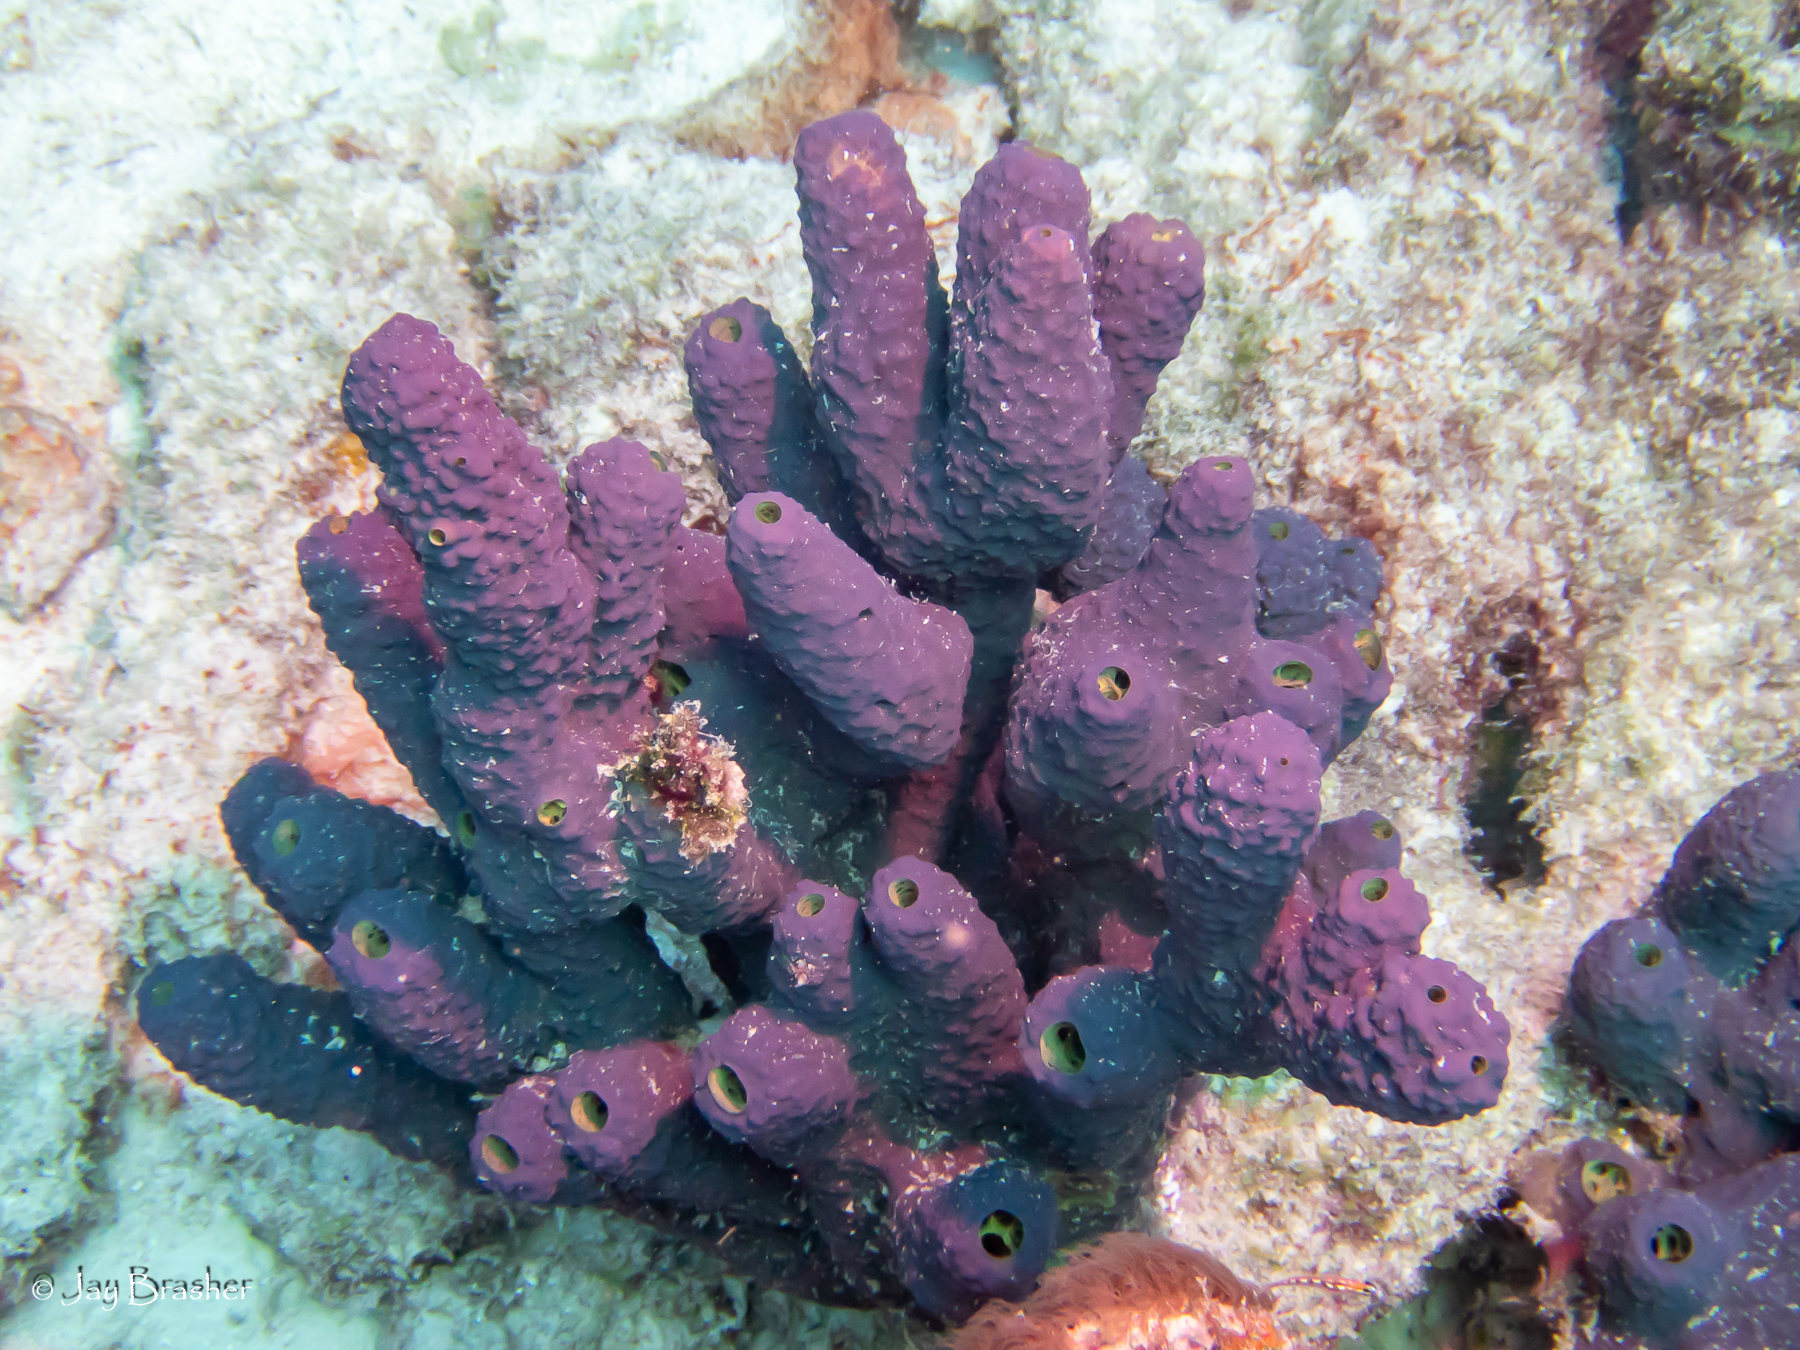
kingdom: Animalia
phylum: Porifera
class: Demospongiae
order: Verongiida
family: Aplysinidae
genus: Aiolochroia
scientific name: Aiolochroia crassa
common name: Branching tube sponge
